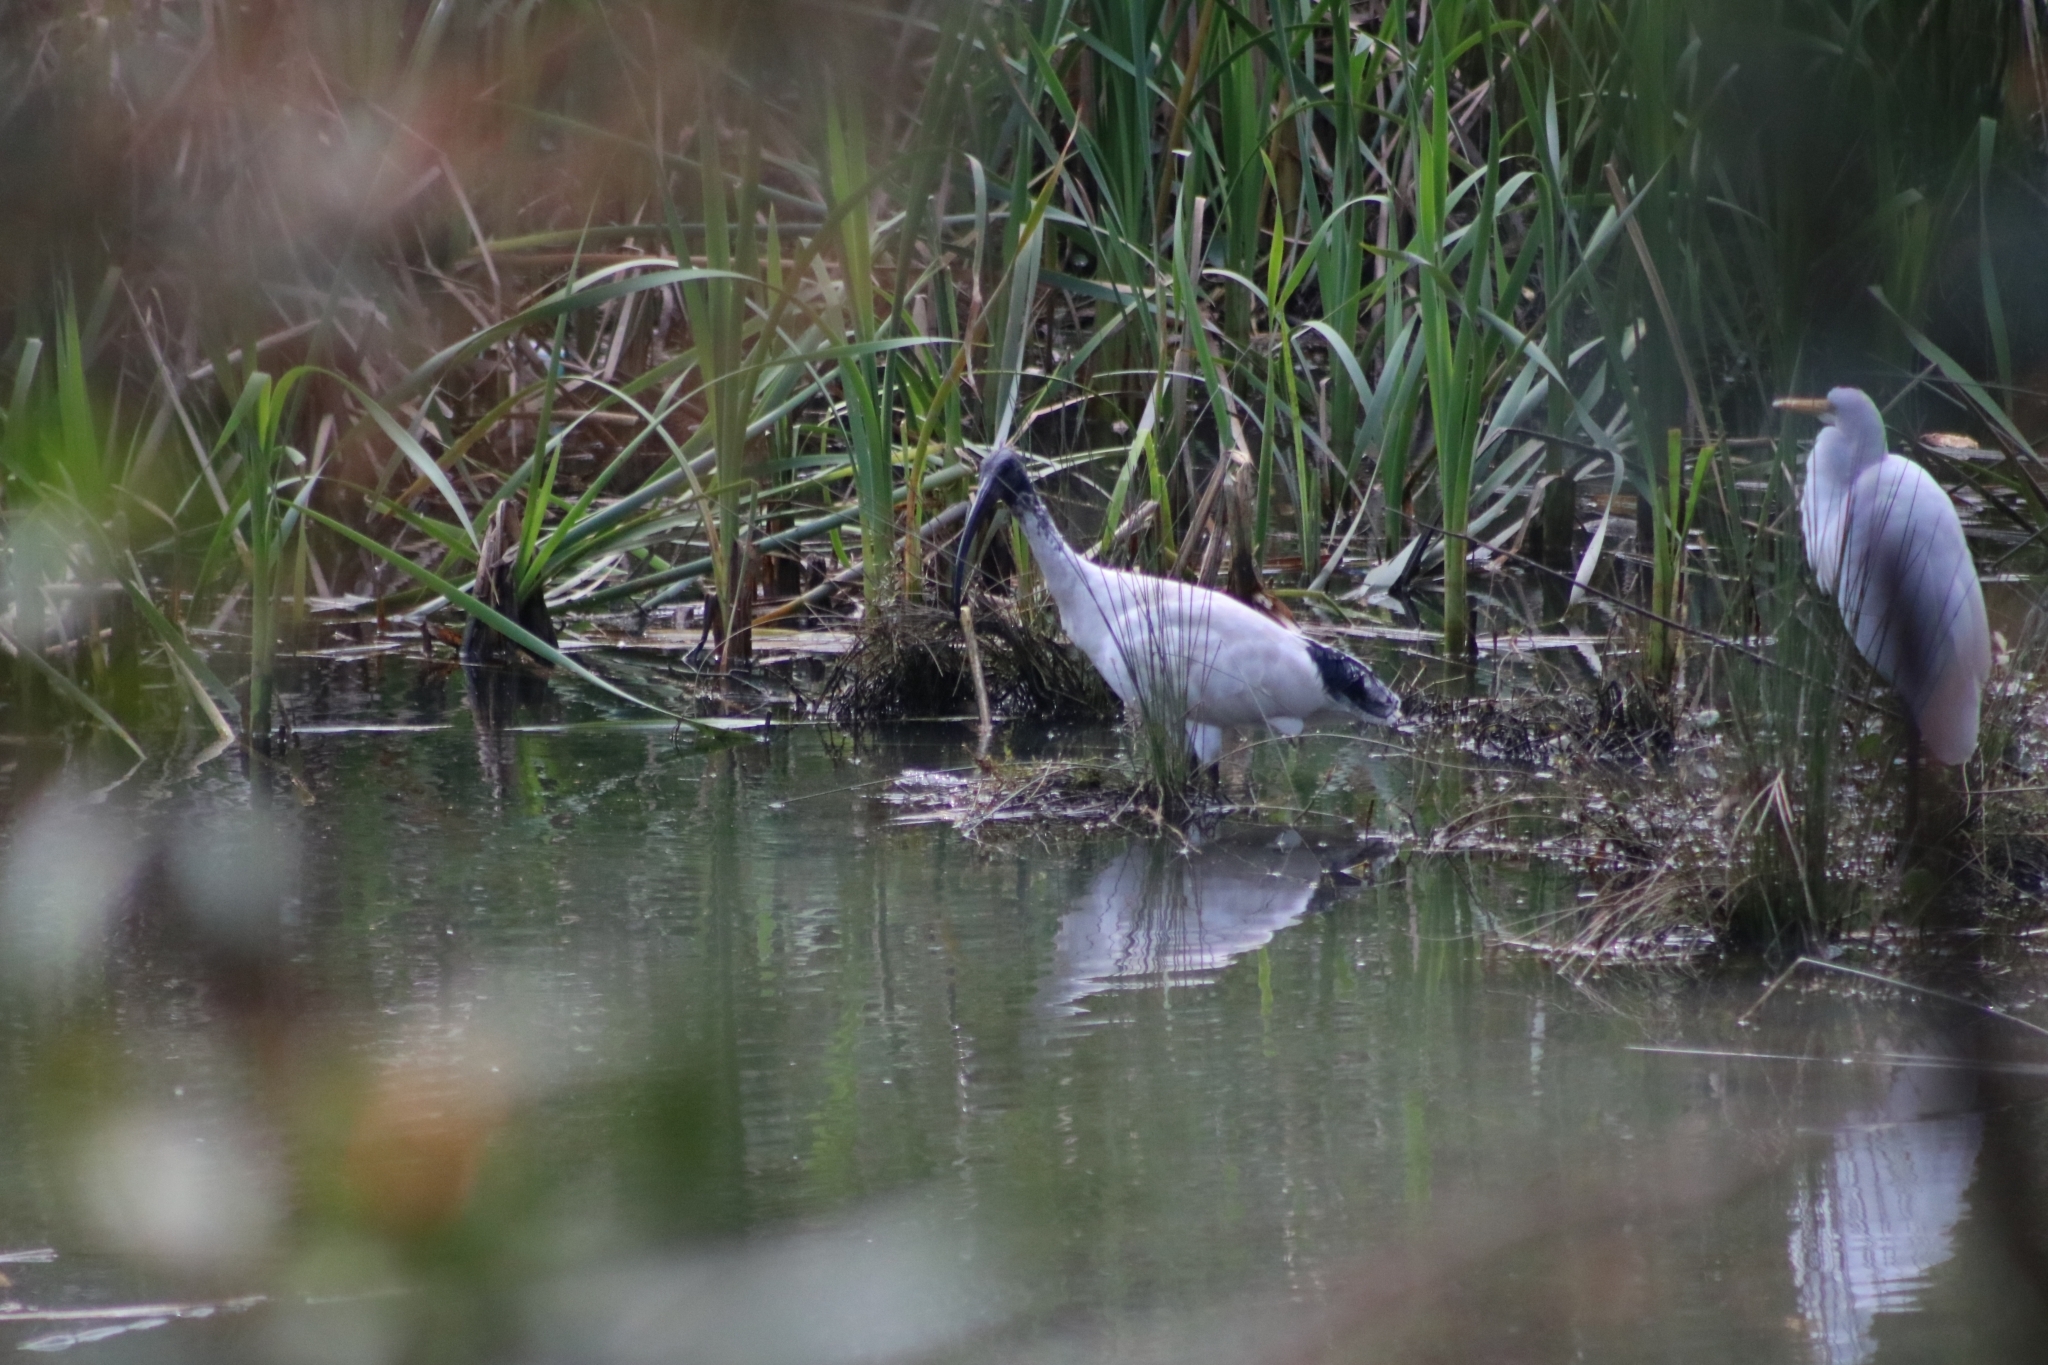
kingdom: Animalia
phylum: Chordata
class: Aves
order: Pelecaniformes
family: Threskiornithidae
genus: Threskiornis
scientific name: Threskiornis molucca
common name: Australian white ibis
